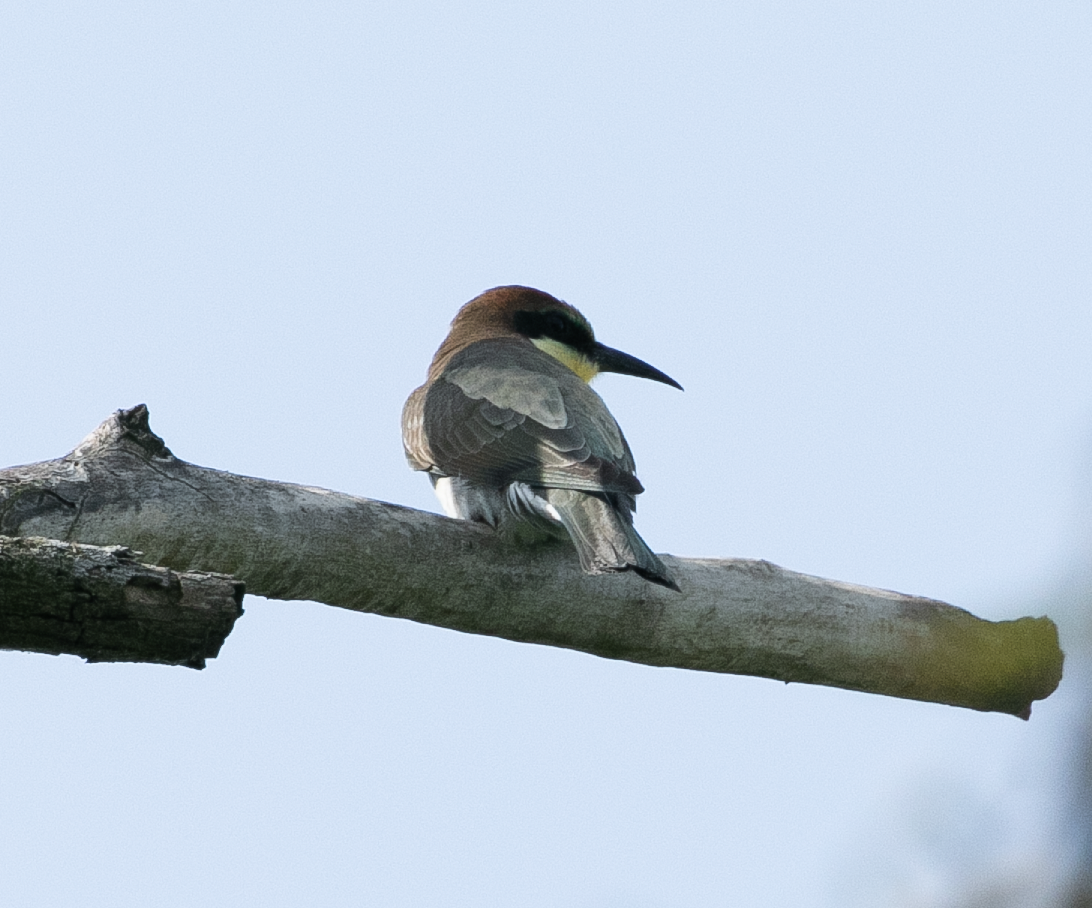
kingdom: Animalia
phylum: Chordata
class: Aves
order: Coraciiformes
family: Meropidae
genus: Merops
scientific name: Merops apiaster
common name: European bee-eater
